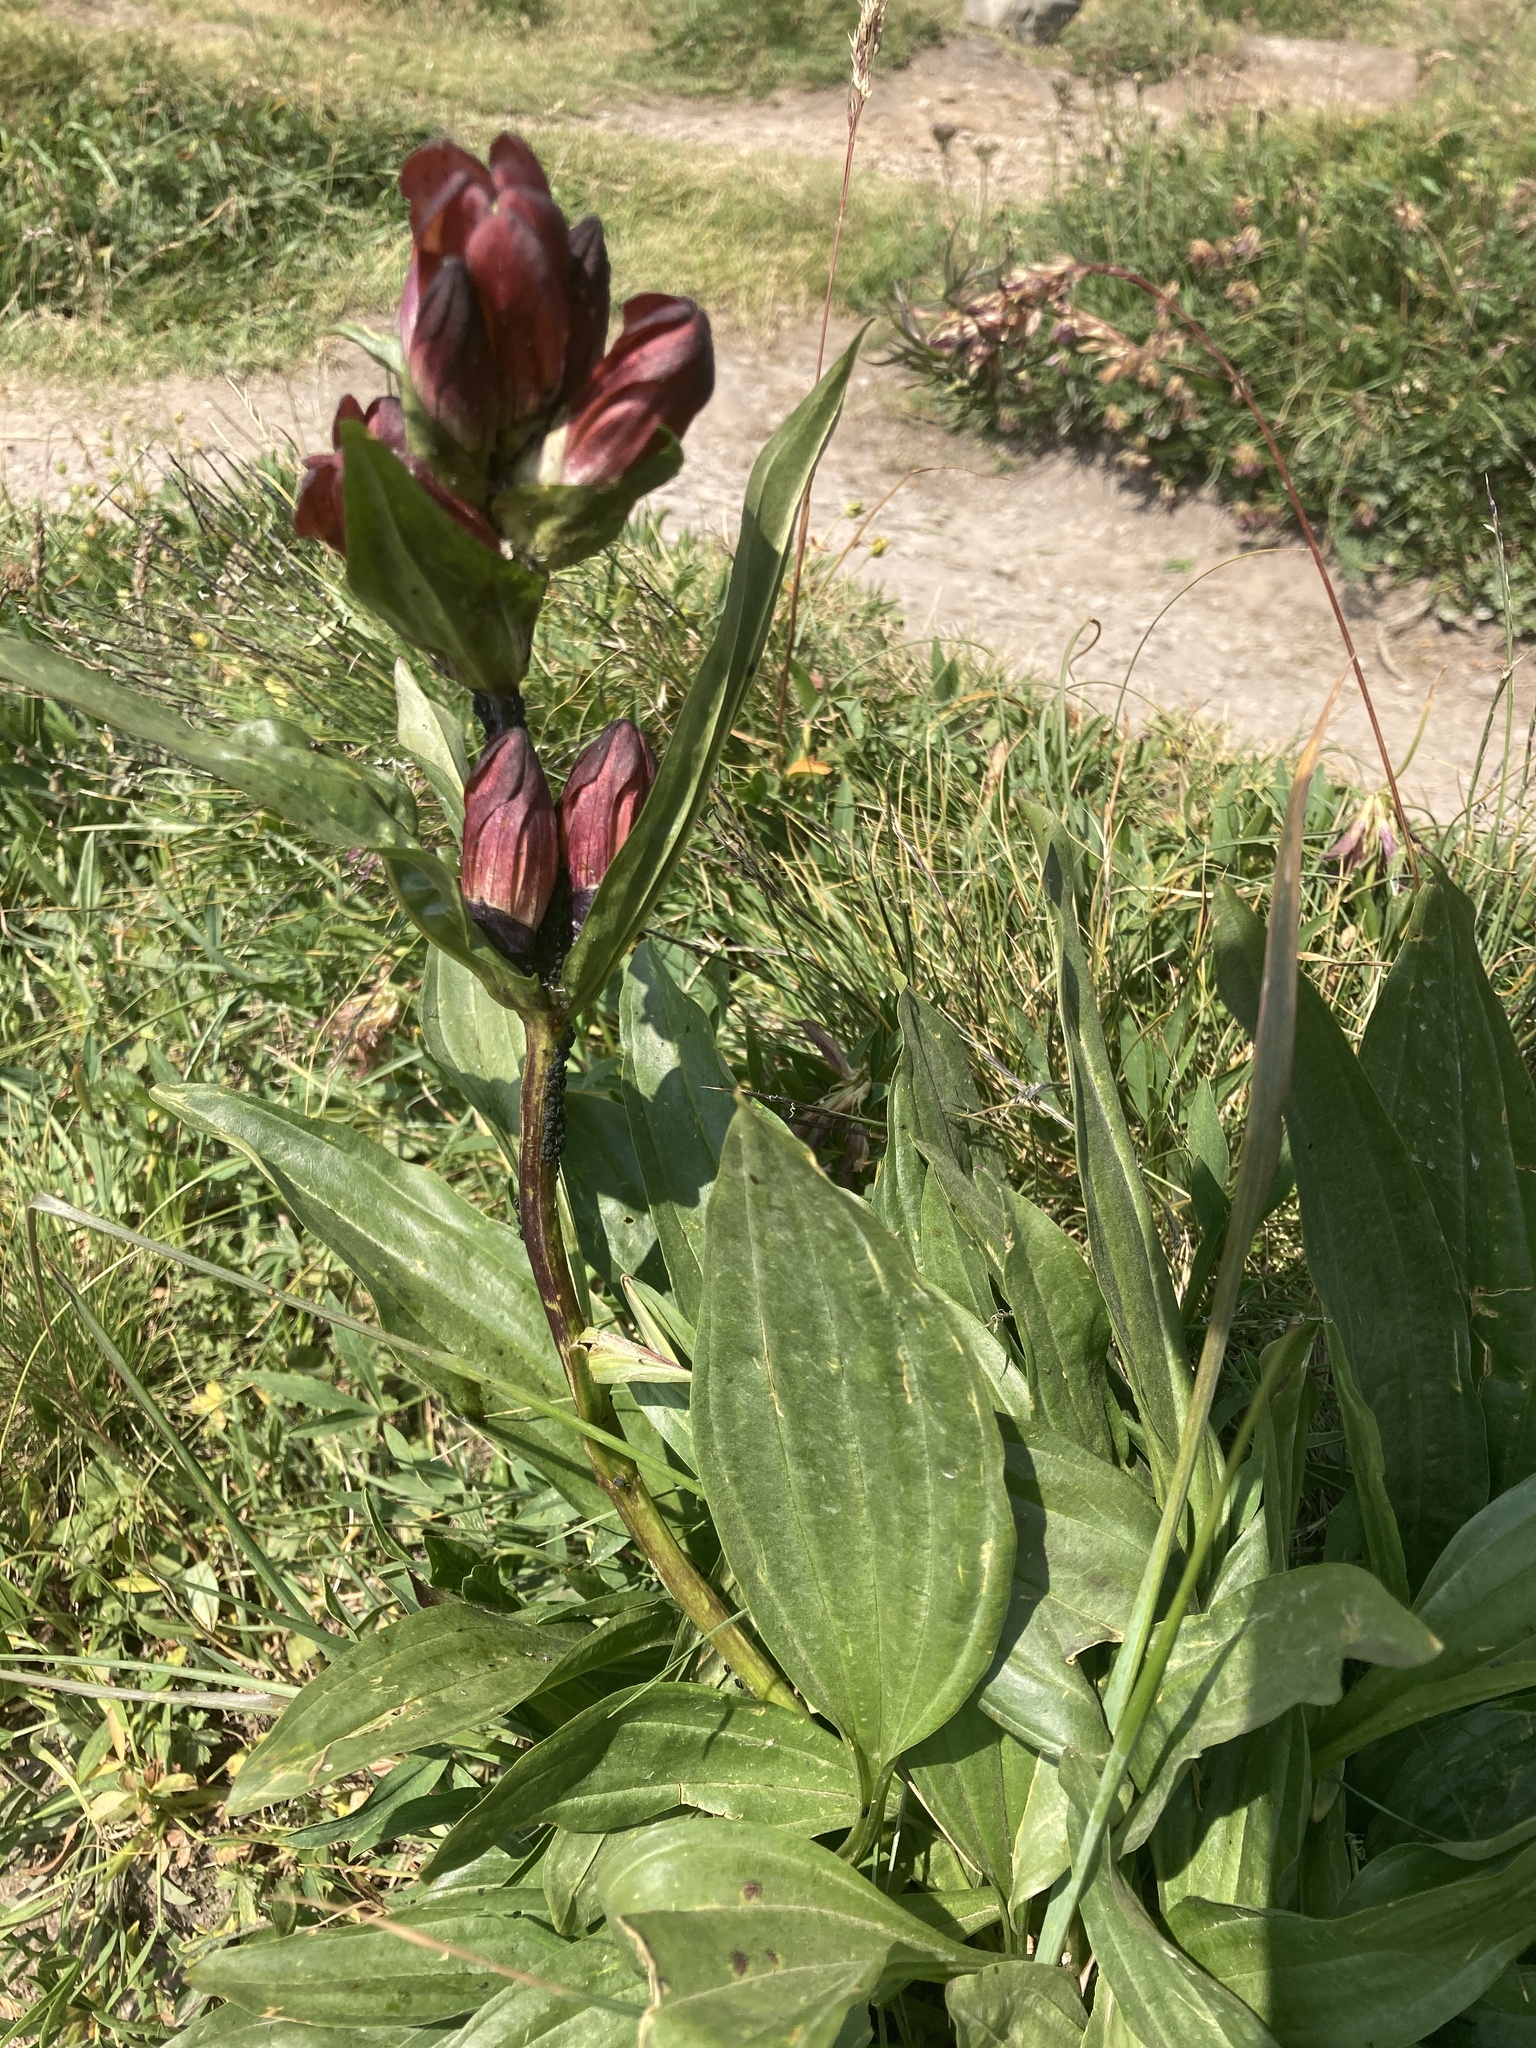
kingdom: Plantae
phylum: Tracheophyta
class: Magnoliopsida
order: Gentianales
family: Gentianaceae
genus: Gentiana
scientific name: Gentiana purpurea
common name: Purple gentian
